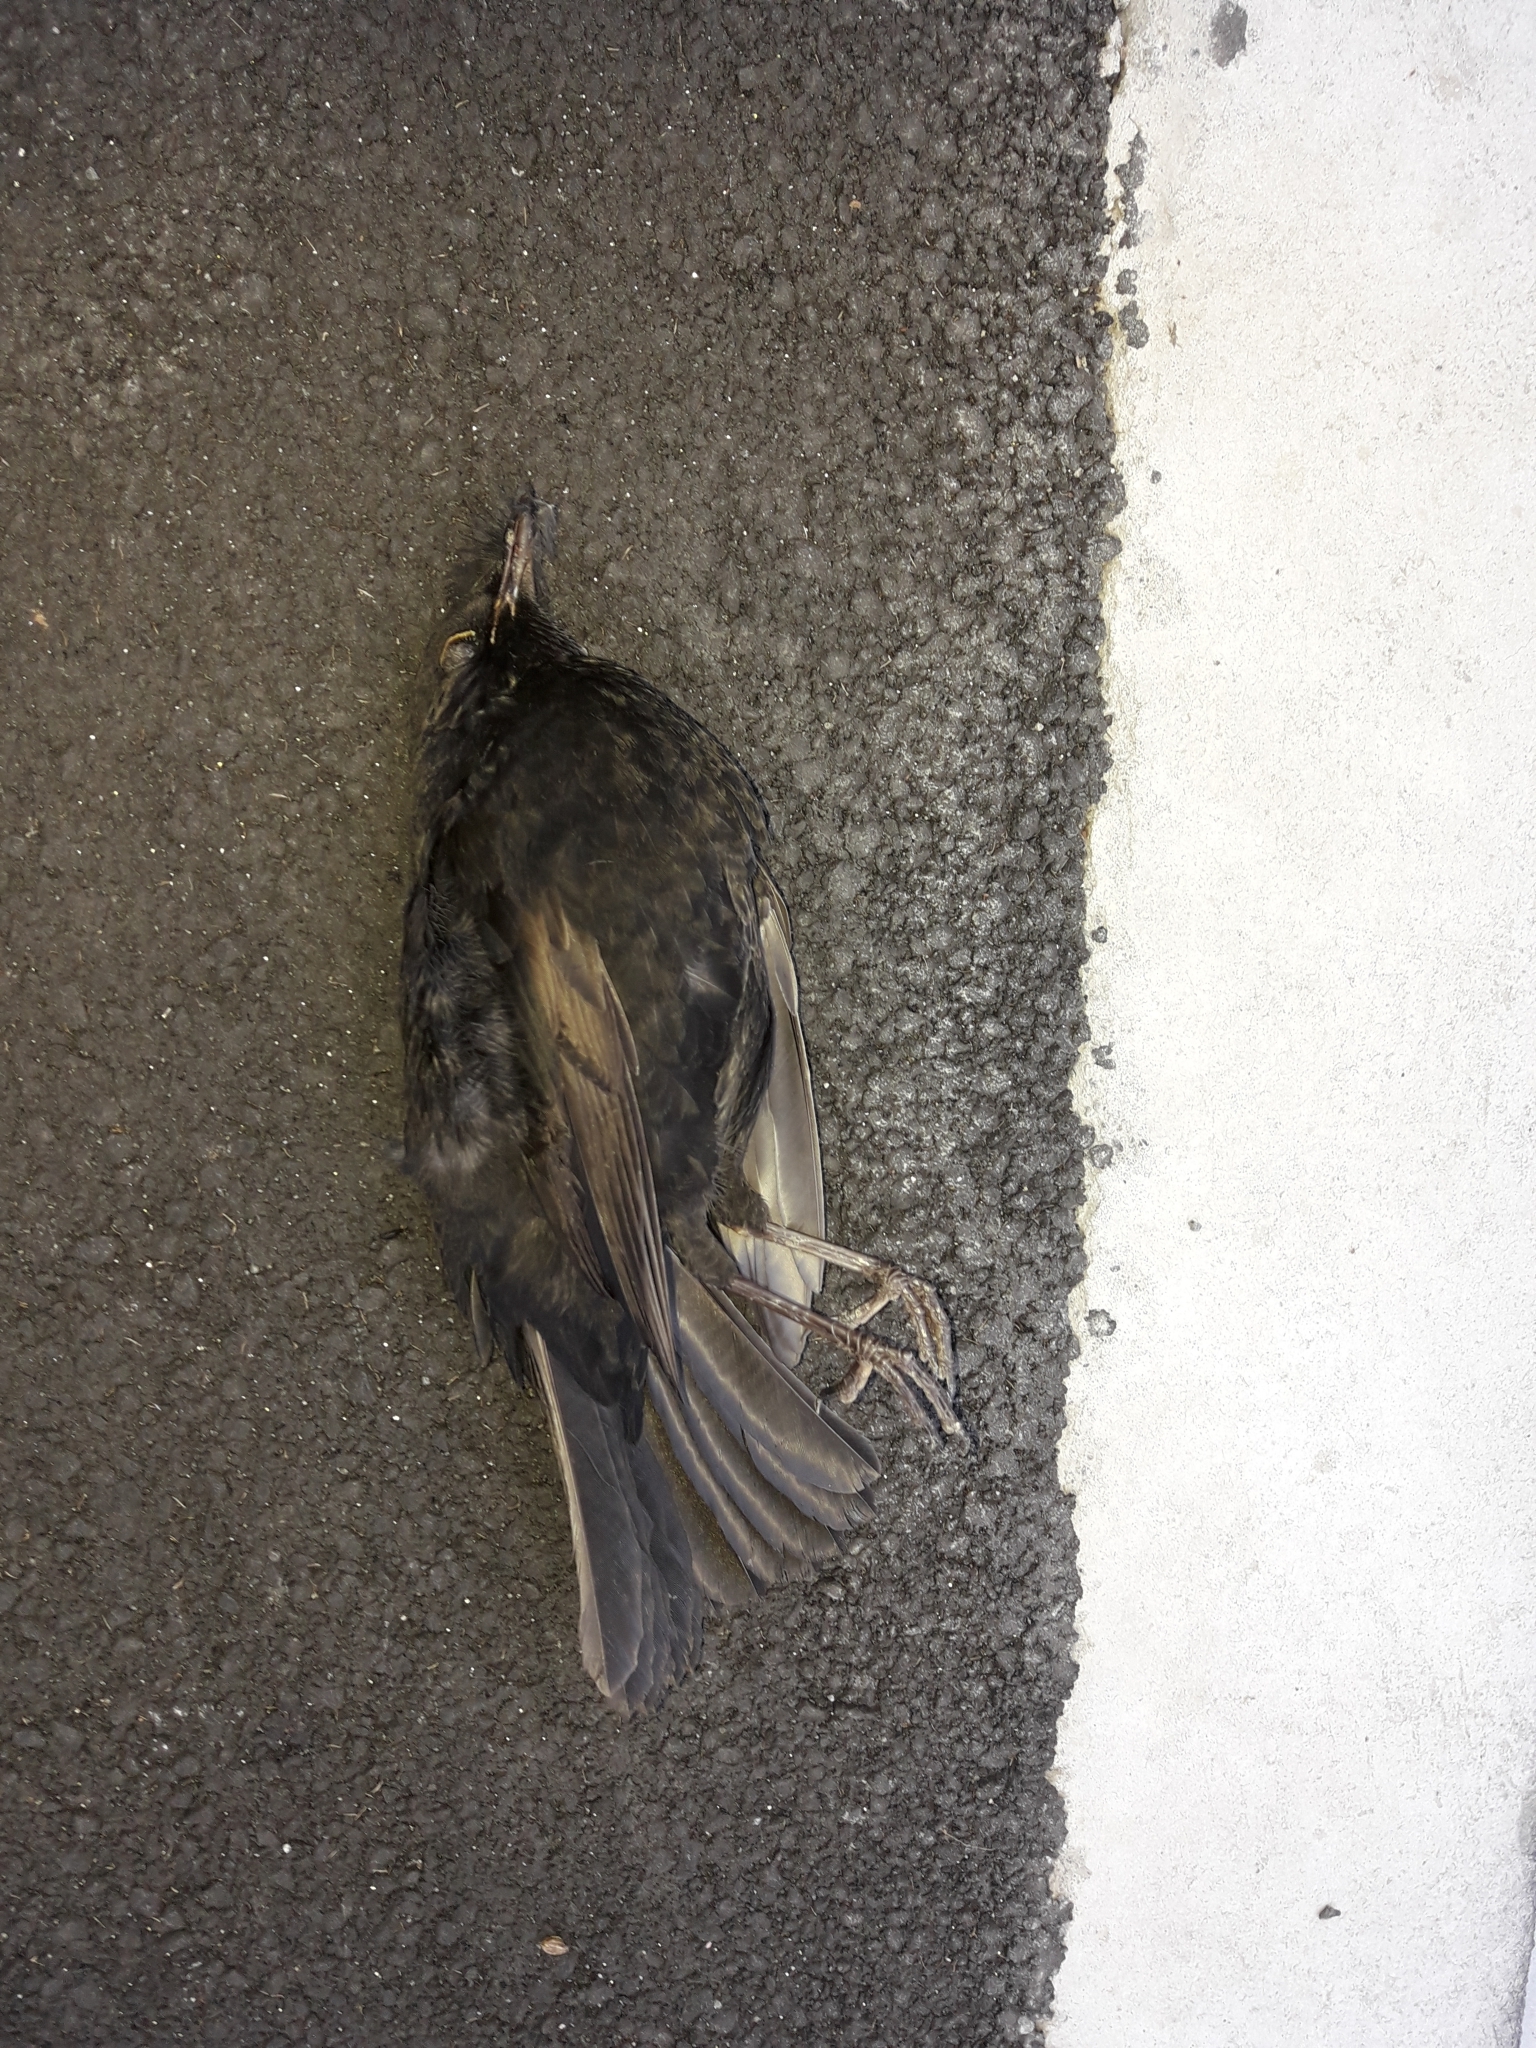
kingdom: Animalia
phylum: Chordata
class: Aves
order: Passeriformes
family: Turdidae
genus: Turdus
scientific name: Turdus merula
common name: Common blackbird
